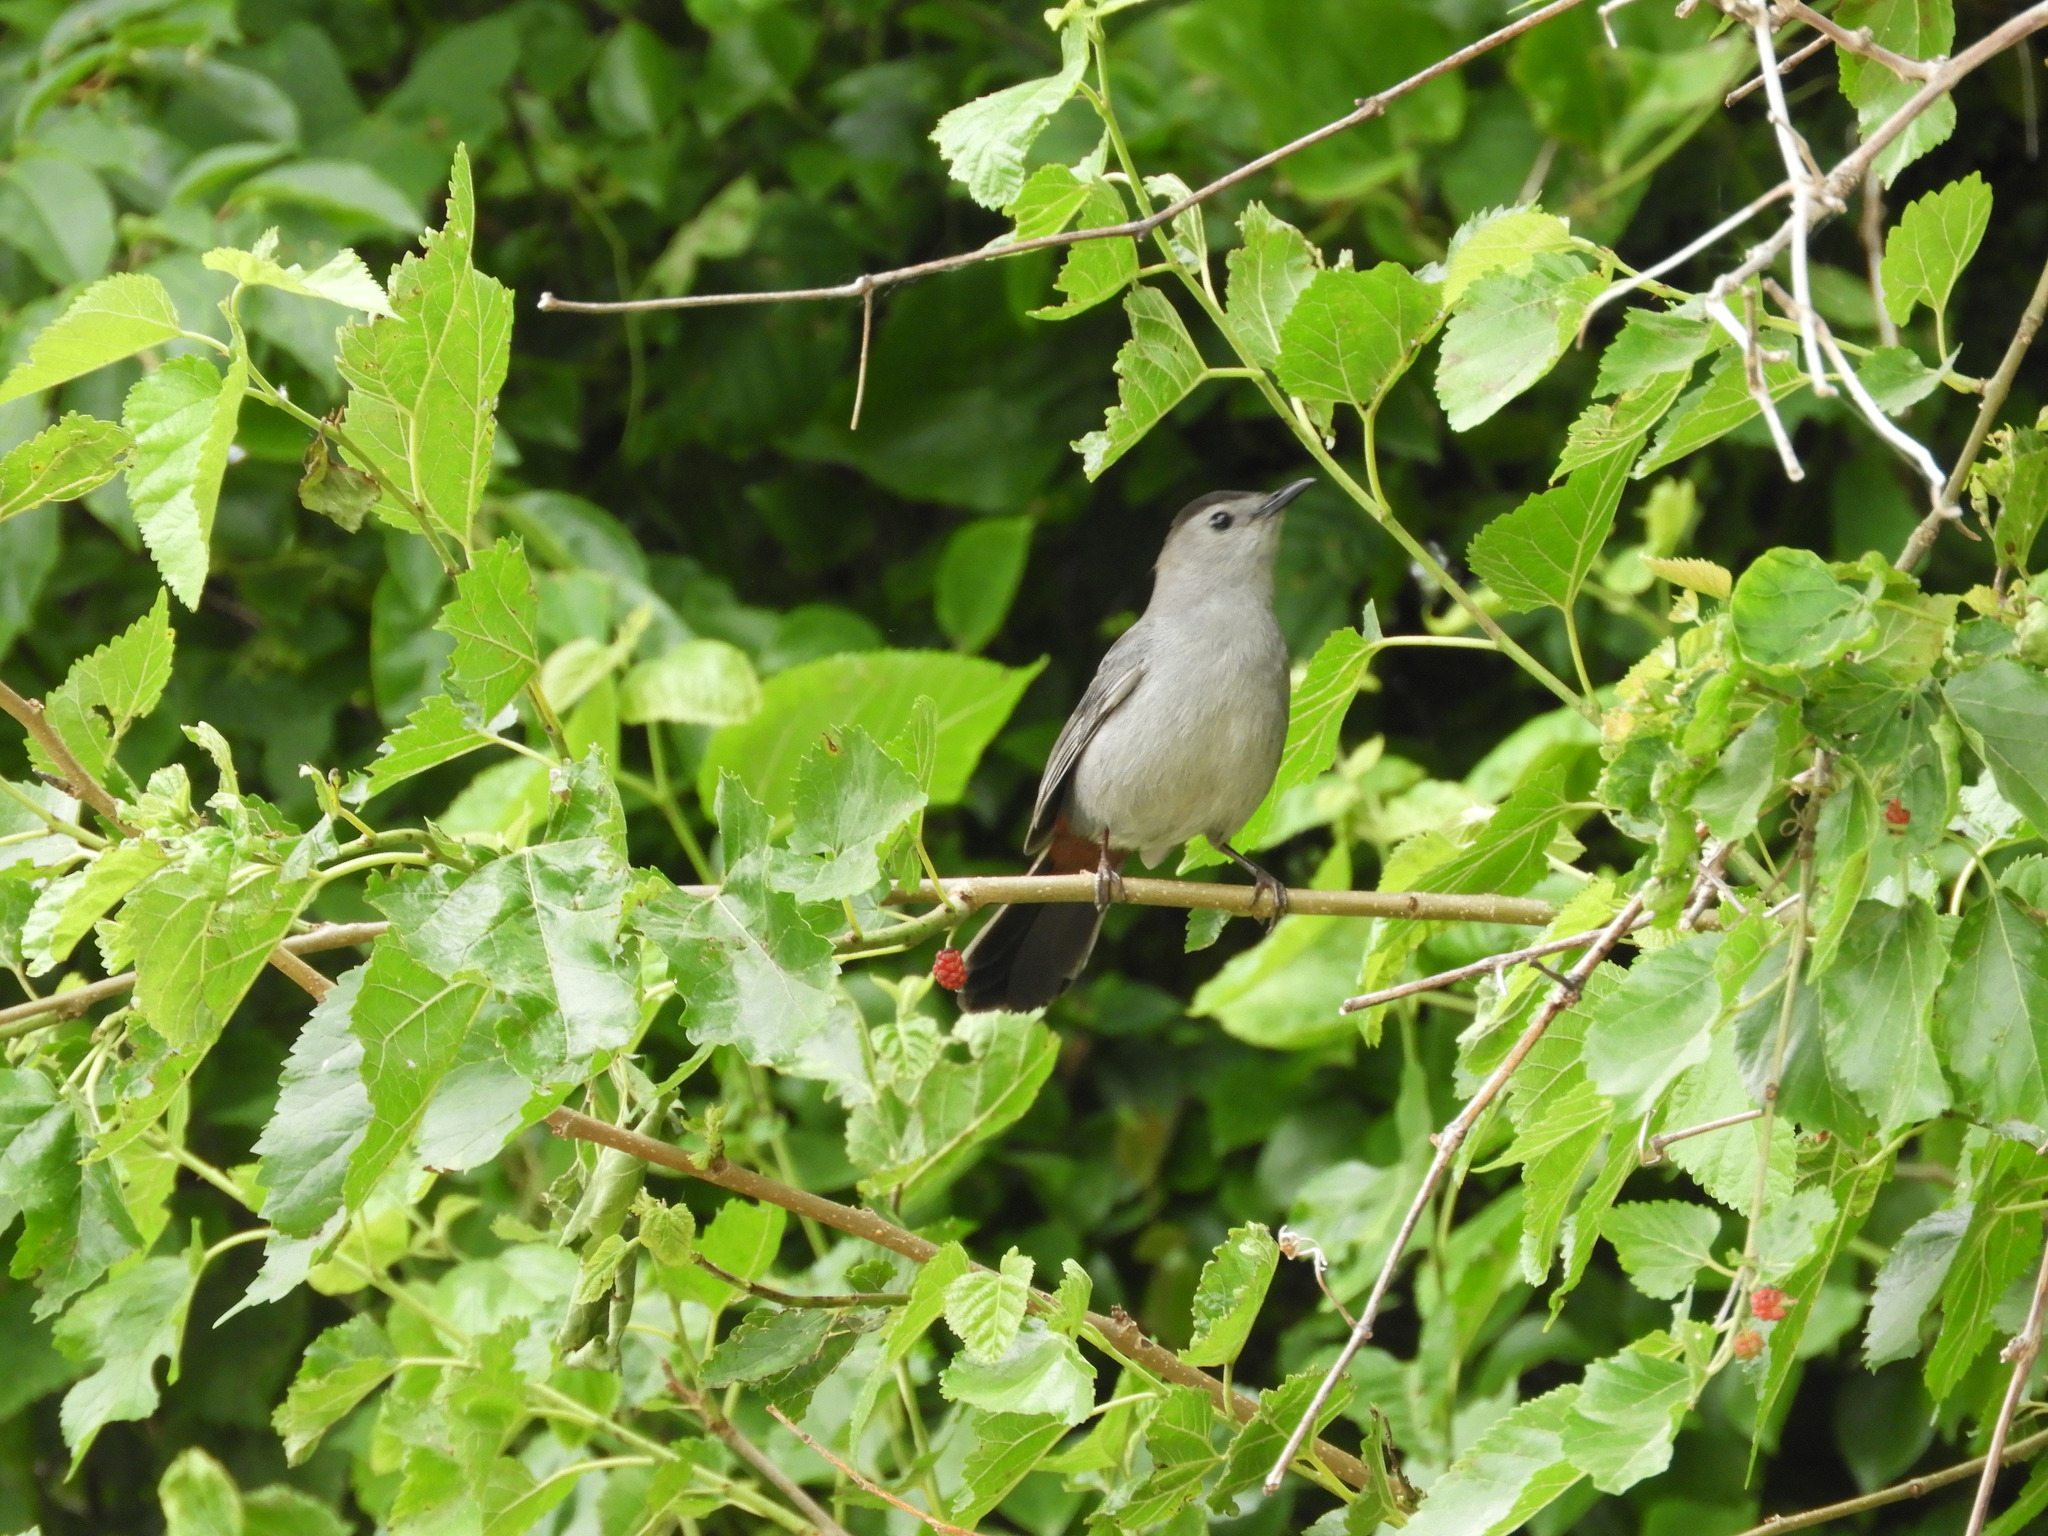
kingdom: Animalia
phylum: Chordata
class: Aves
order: Passeriformes
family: Mimidae
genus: Dumetella
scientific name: Dumetella carolinensis
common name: Gray catbird
